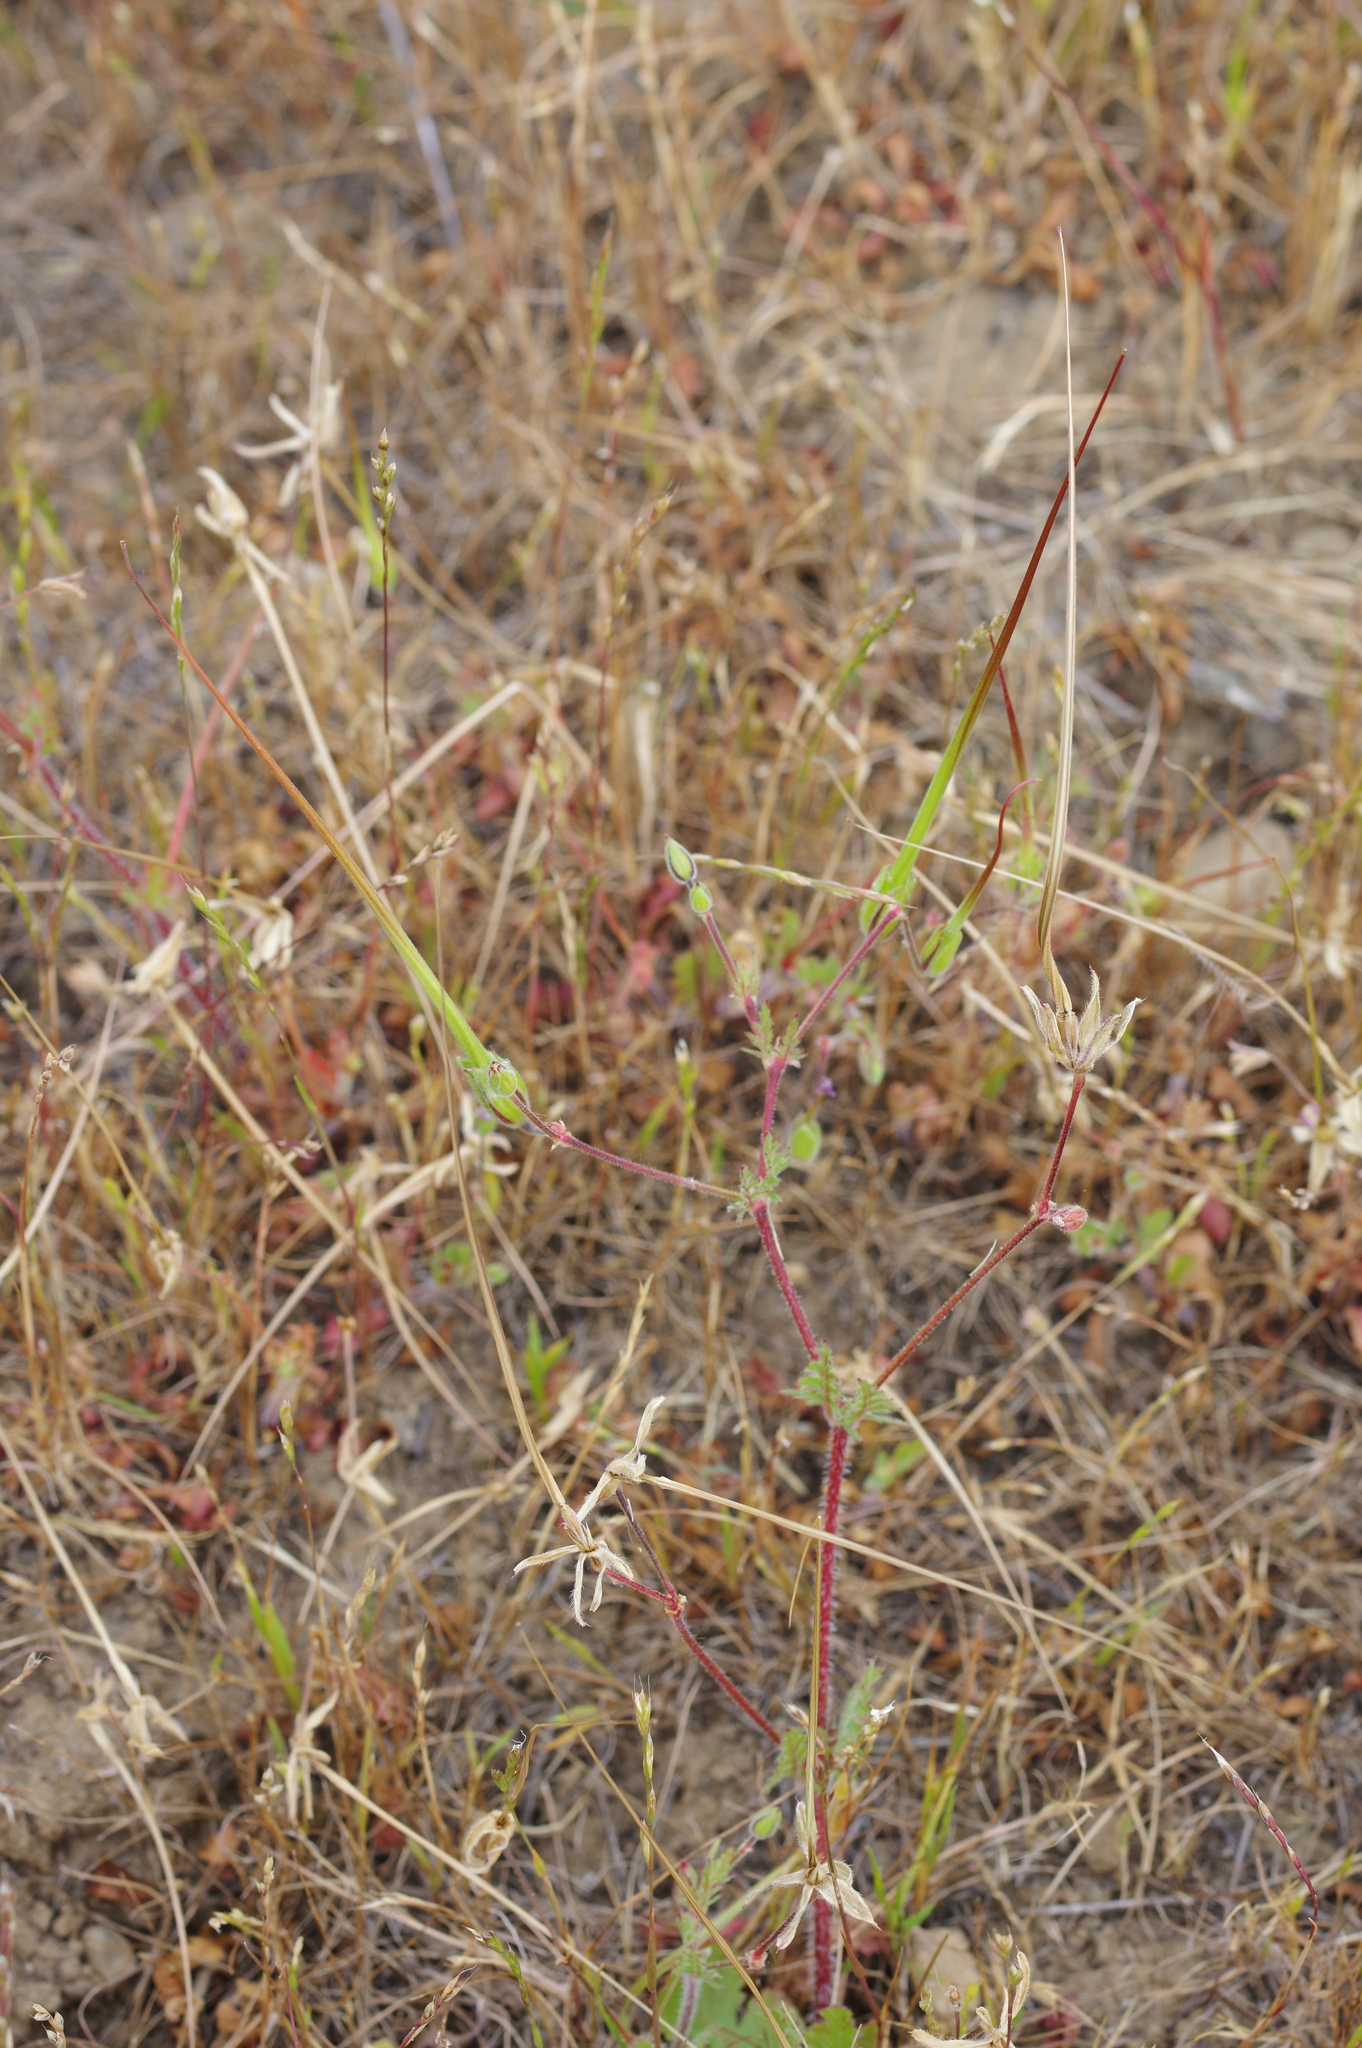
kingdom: Plantae
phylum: Tracheophyta
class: Magnoliopsida
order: Geraniales
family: Geraniaceae
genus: Erodium
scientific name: Erodium botrys
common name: Mediterranean stork's-bill
